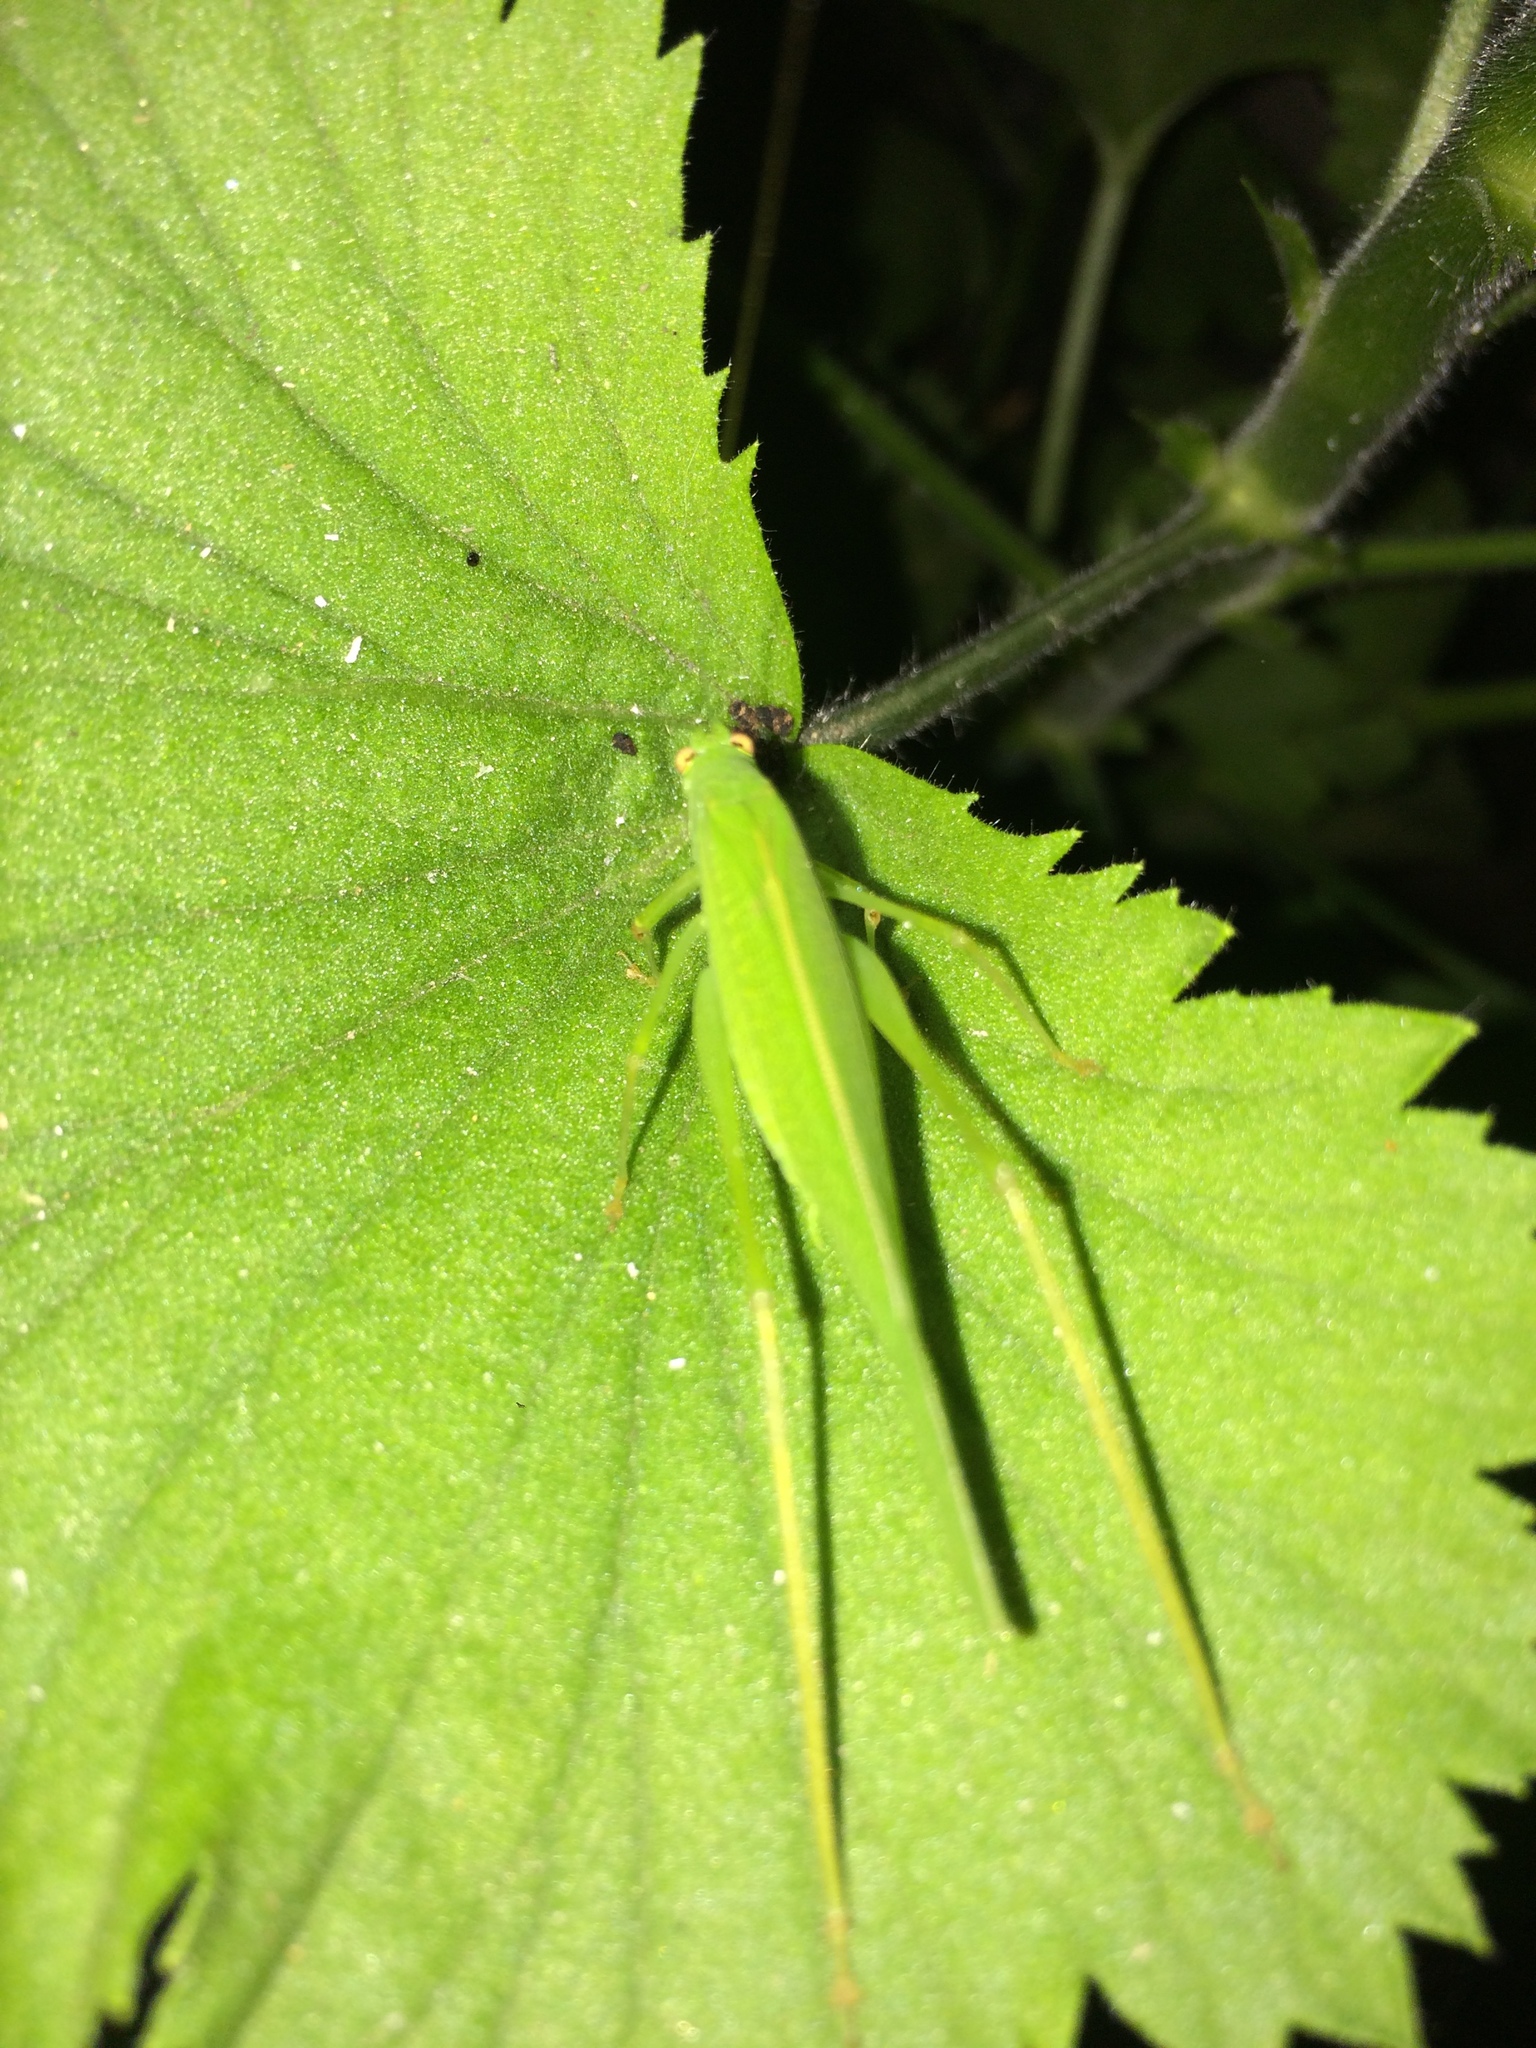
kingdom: Animalia
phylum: Arthropoda
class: Insecta
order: Orthoptera
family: Tettigoniidae
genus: Phaneroptera
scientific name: Phaneroptera nana
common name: Southern sickle bush-cricket
